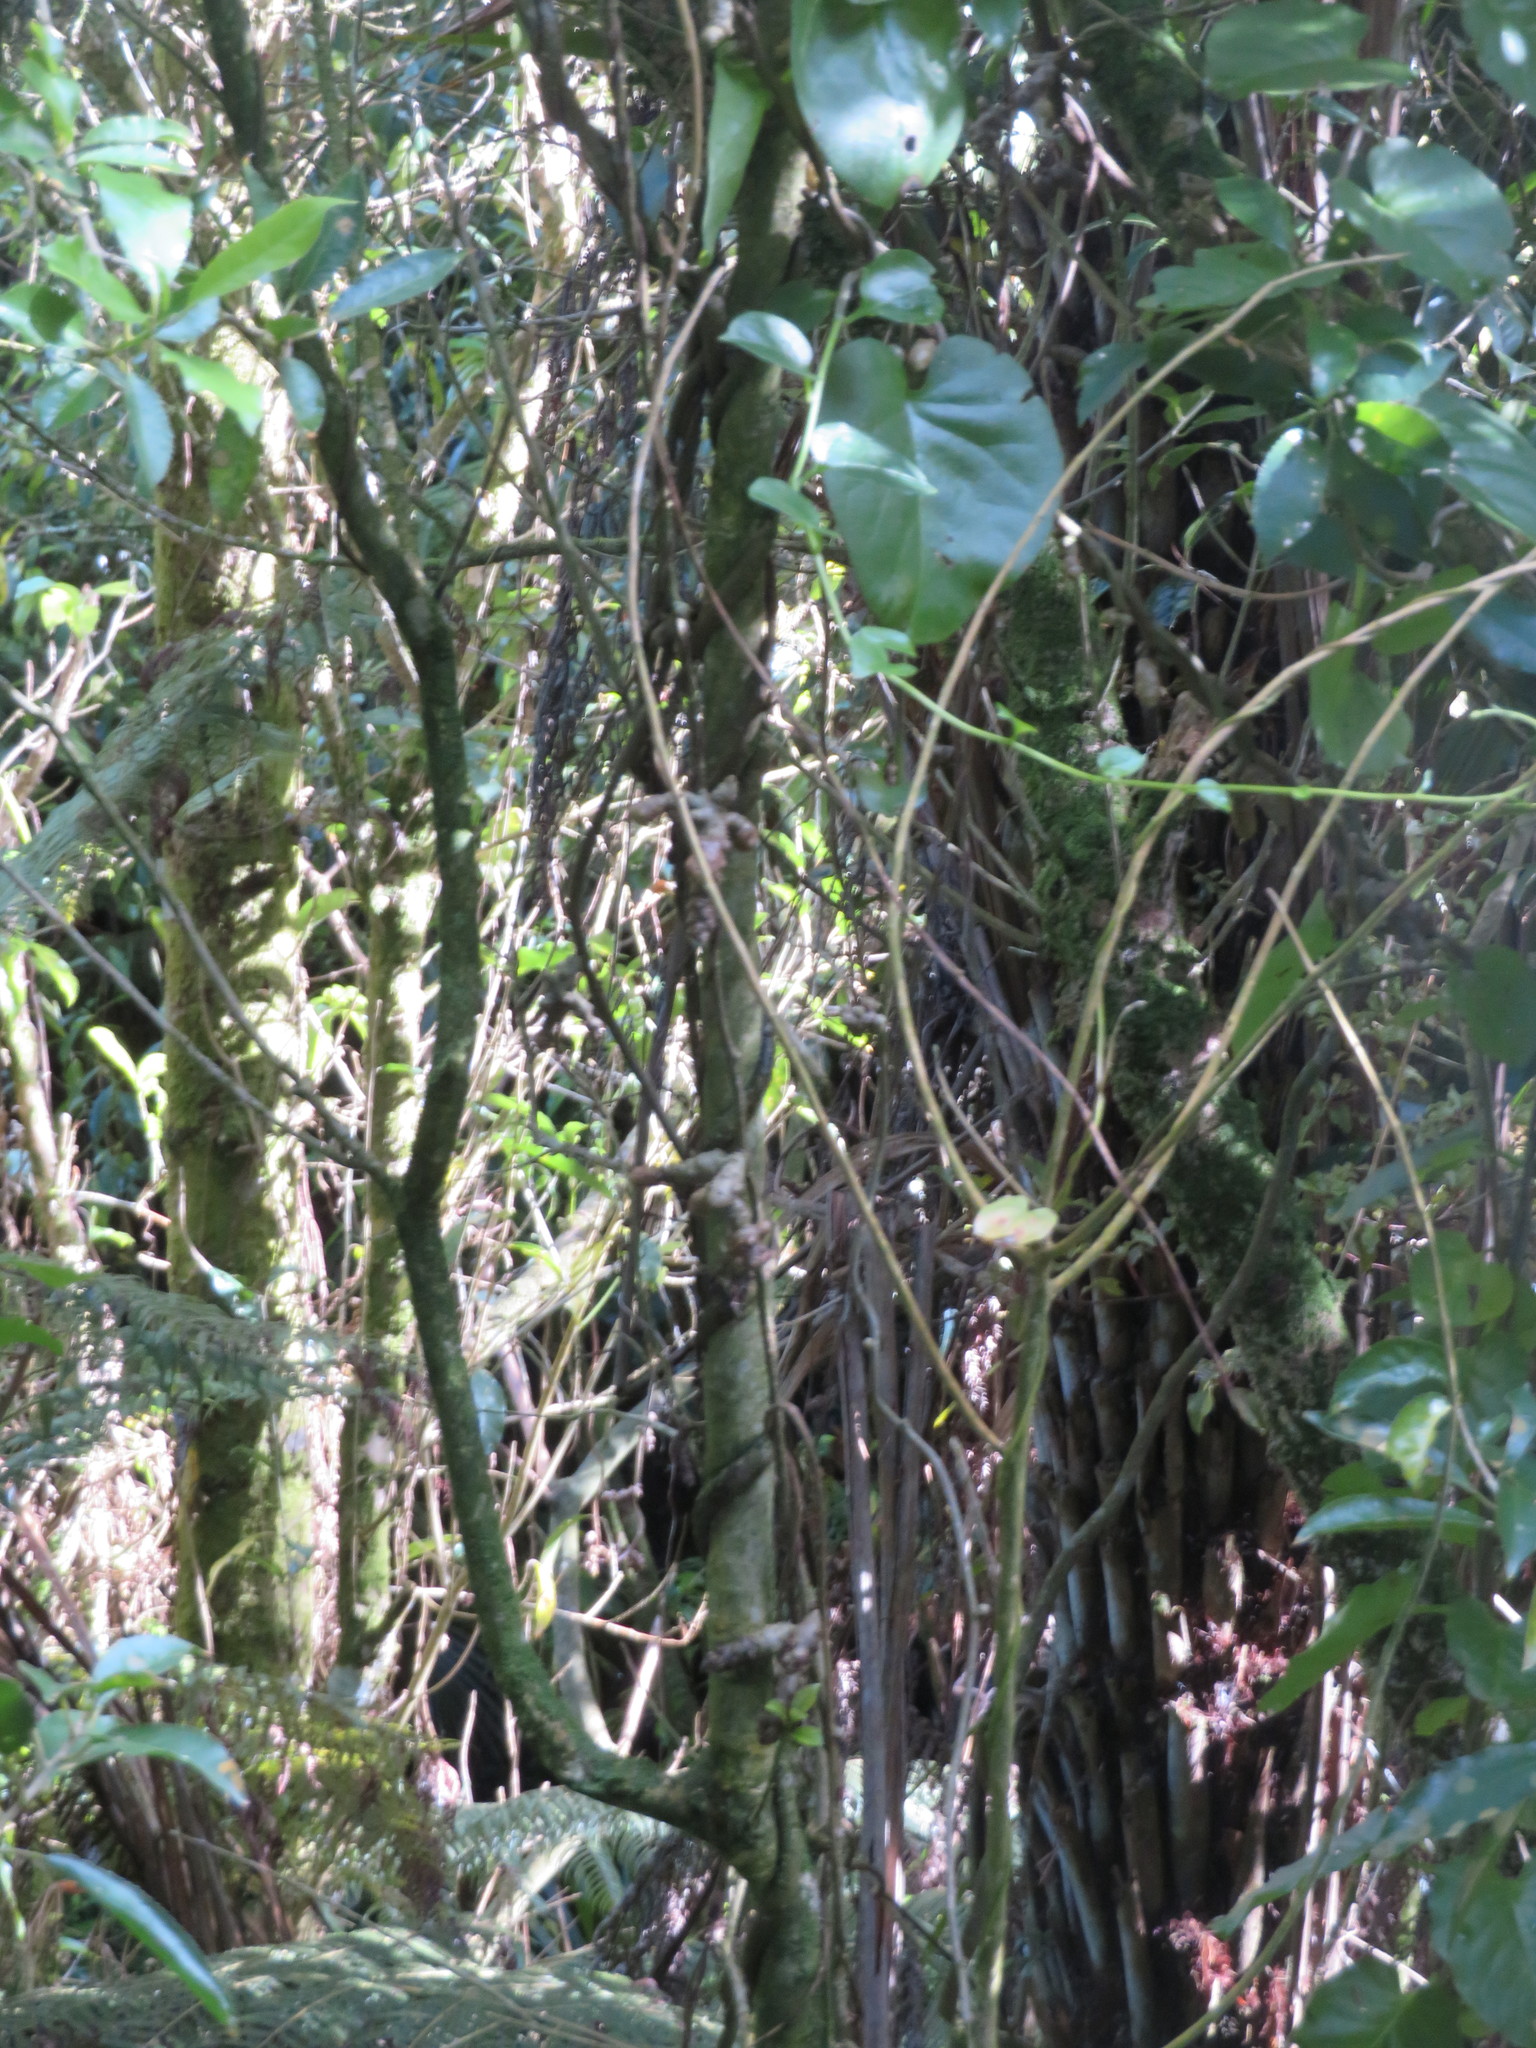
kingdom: Plantae
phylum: Tracheophyta
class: Magnoliopsida
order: Caryophyllales
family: Basellaceae
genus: Anredera
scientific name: Anredera cordifolia
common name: Heartleaf madeiravine
